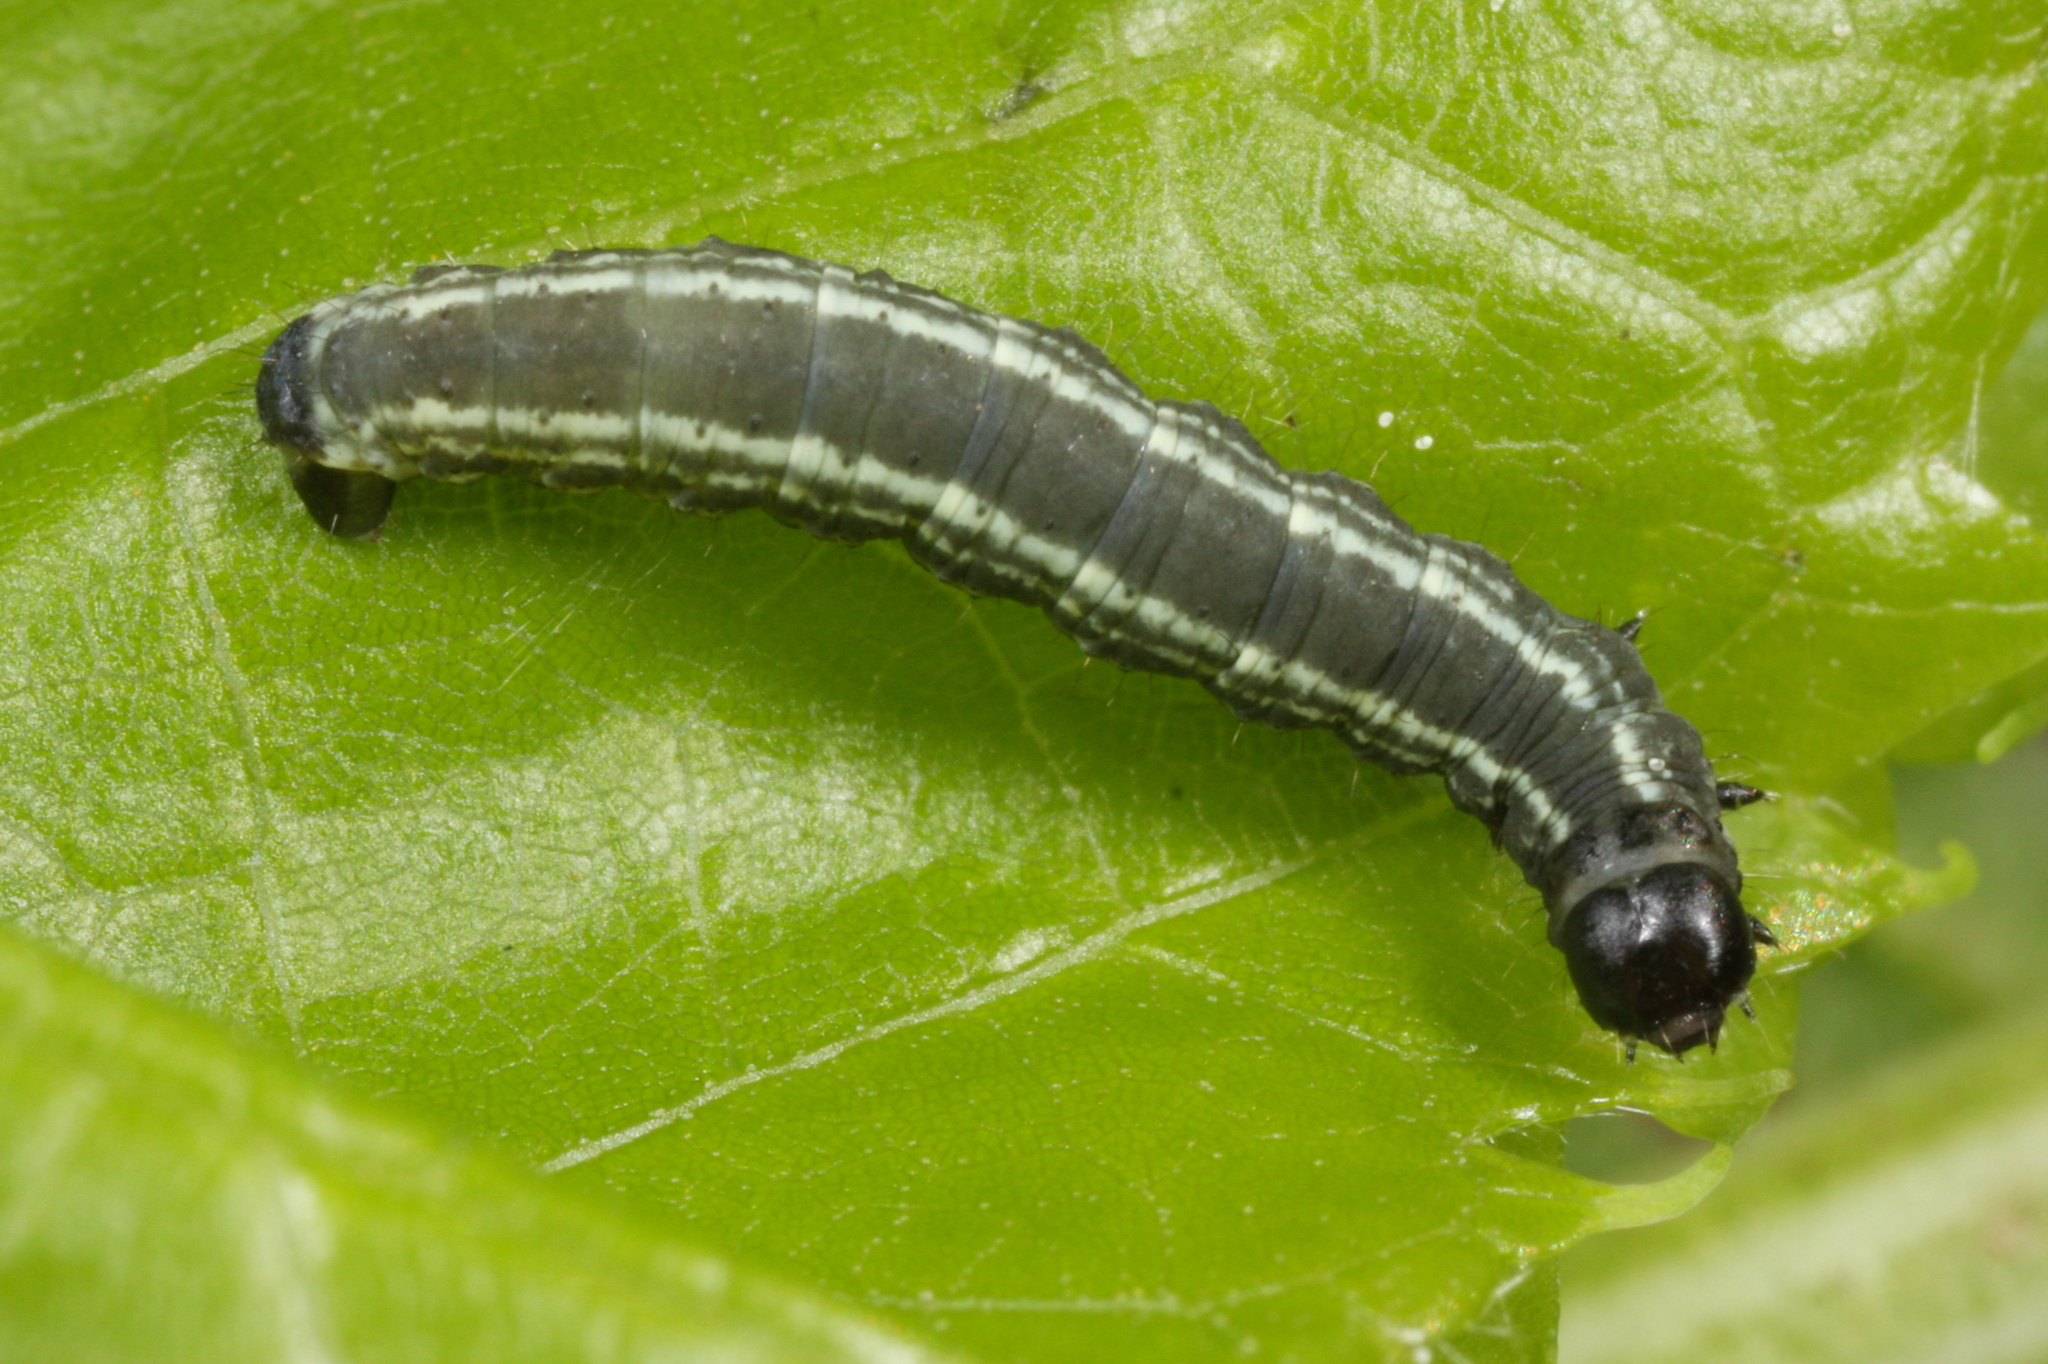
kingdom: Animalia
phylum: Arthropoda
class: Insecta
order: Lepidoptera
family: Geometridae
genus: Operophtera
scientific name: Operophtera fagata
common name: Northern winter moth
